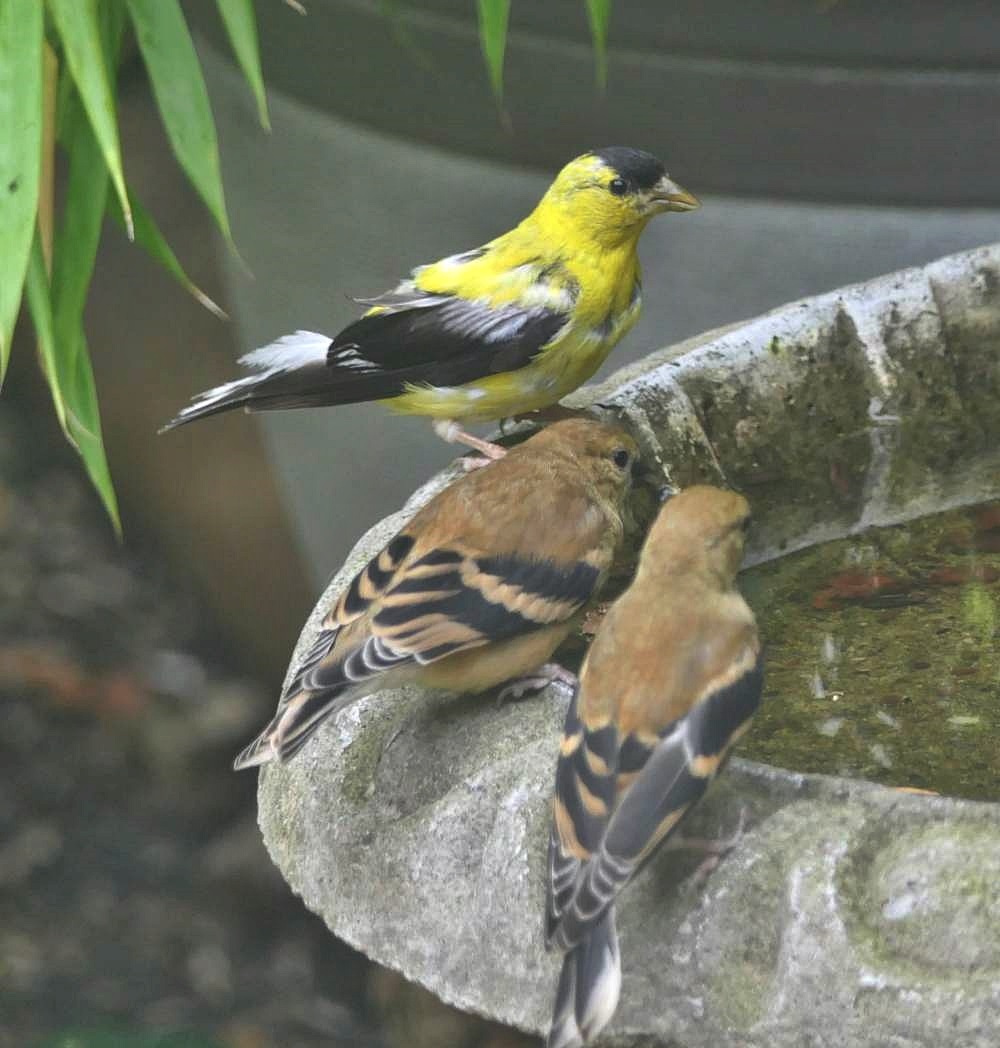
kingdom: Animalia
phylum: Chordata
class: Aves
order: Passeriformes
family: Fringillidae
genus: Spinus
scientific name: Spinus tristis
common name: American goldfinch
